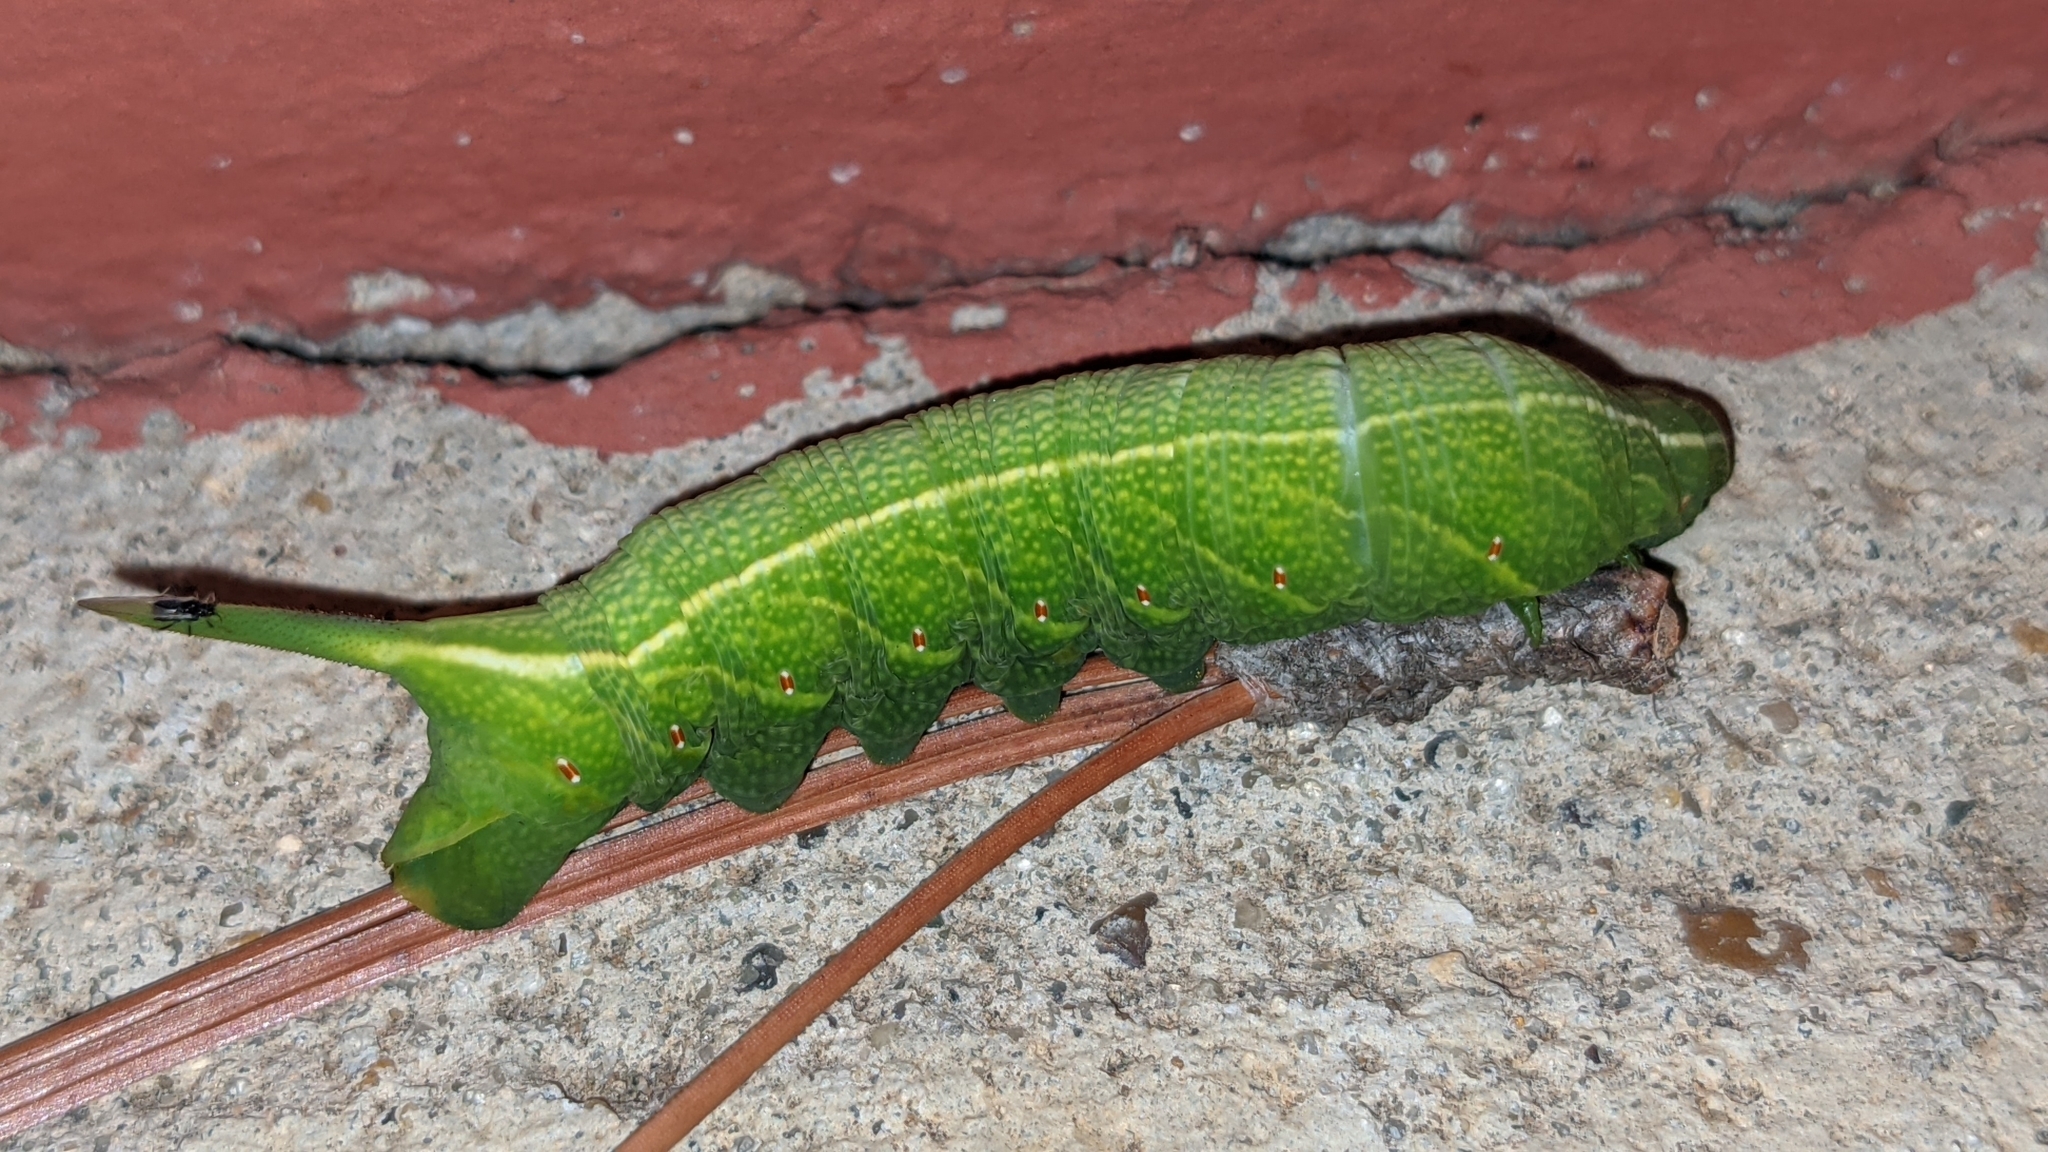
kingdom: Animalia
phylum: Arthropoda
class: Insecta
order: Lepidoptera
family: Sphingidae
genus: Enyo
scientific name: Enyo lugubris
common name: Mournful sphinx
